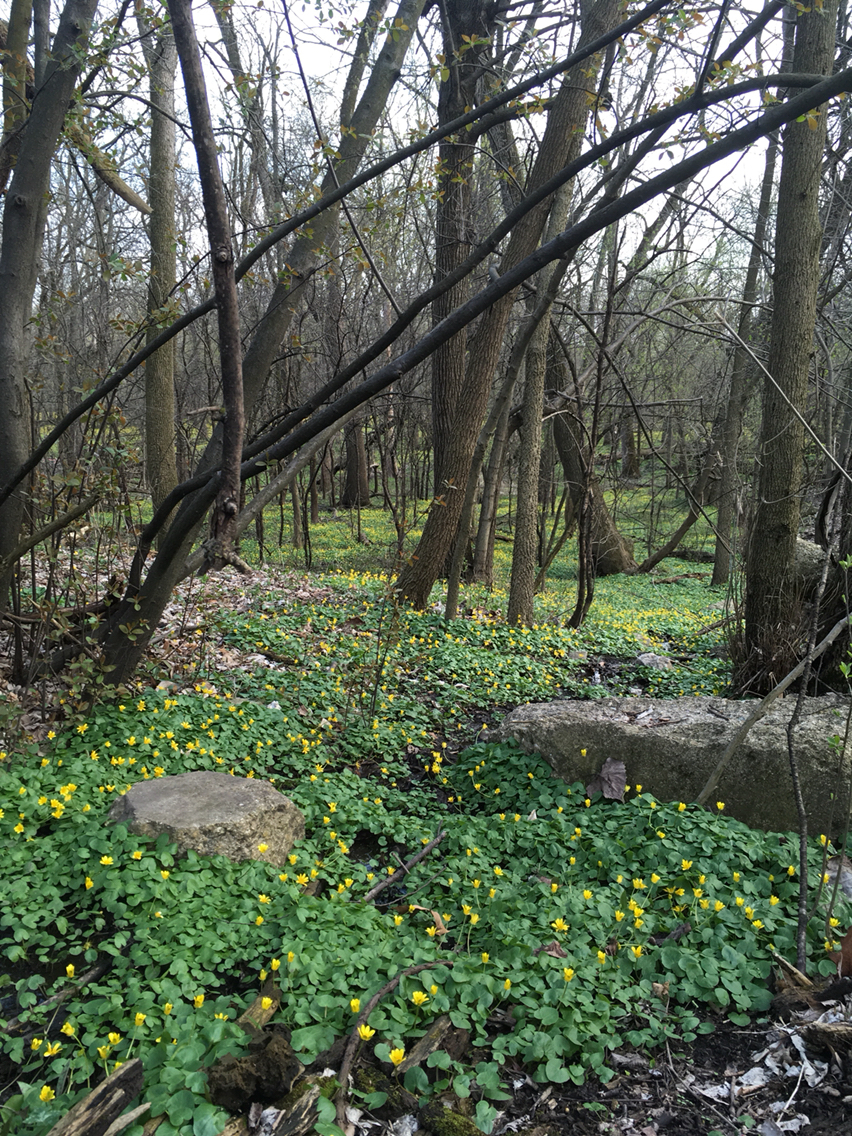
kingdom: Plantae
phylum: Tracheophyta
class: Magnoliopsida
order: Ranunculales
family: Ranunculaceae
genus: Ficaria
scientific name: Ficaria verna
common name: Lesser celandine
